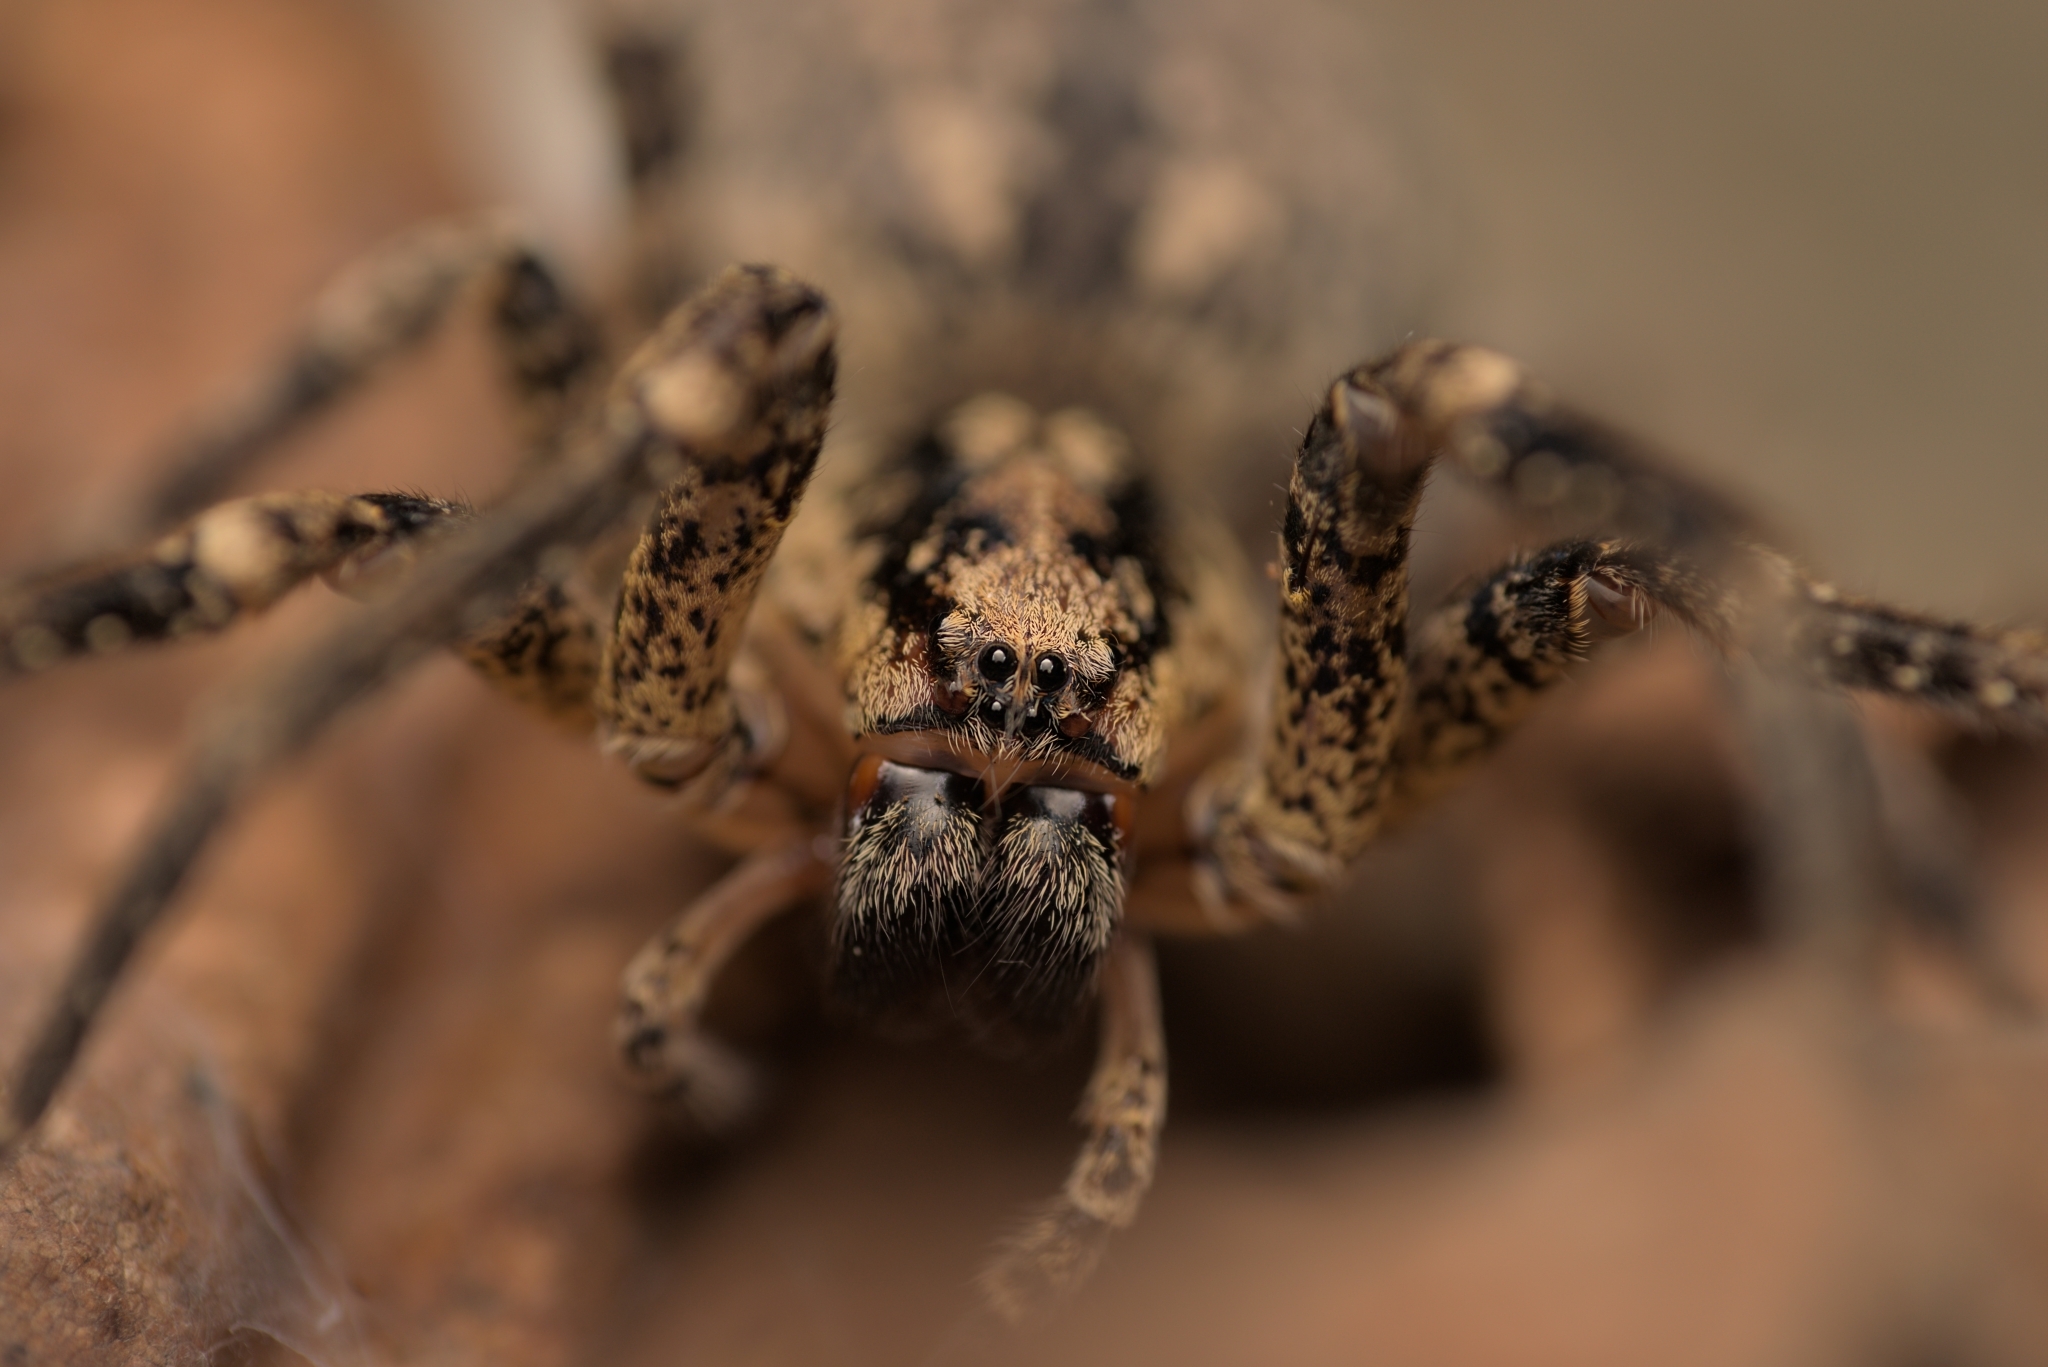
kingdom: Animalia
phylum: Arthropoda
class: Arachnida
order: Araneae
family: Zoropsidae
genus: Zoropsis
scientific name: Zoropsis spinimana
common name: Zoropsid spider
